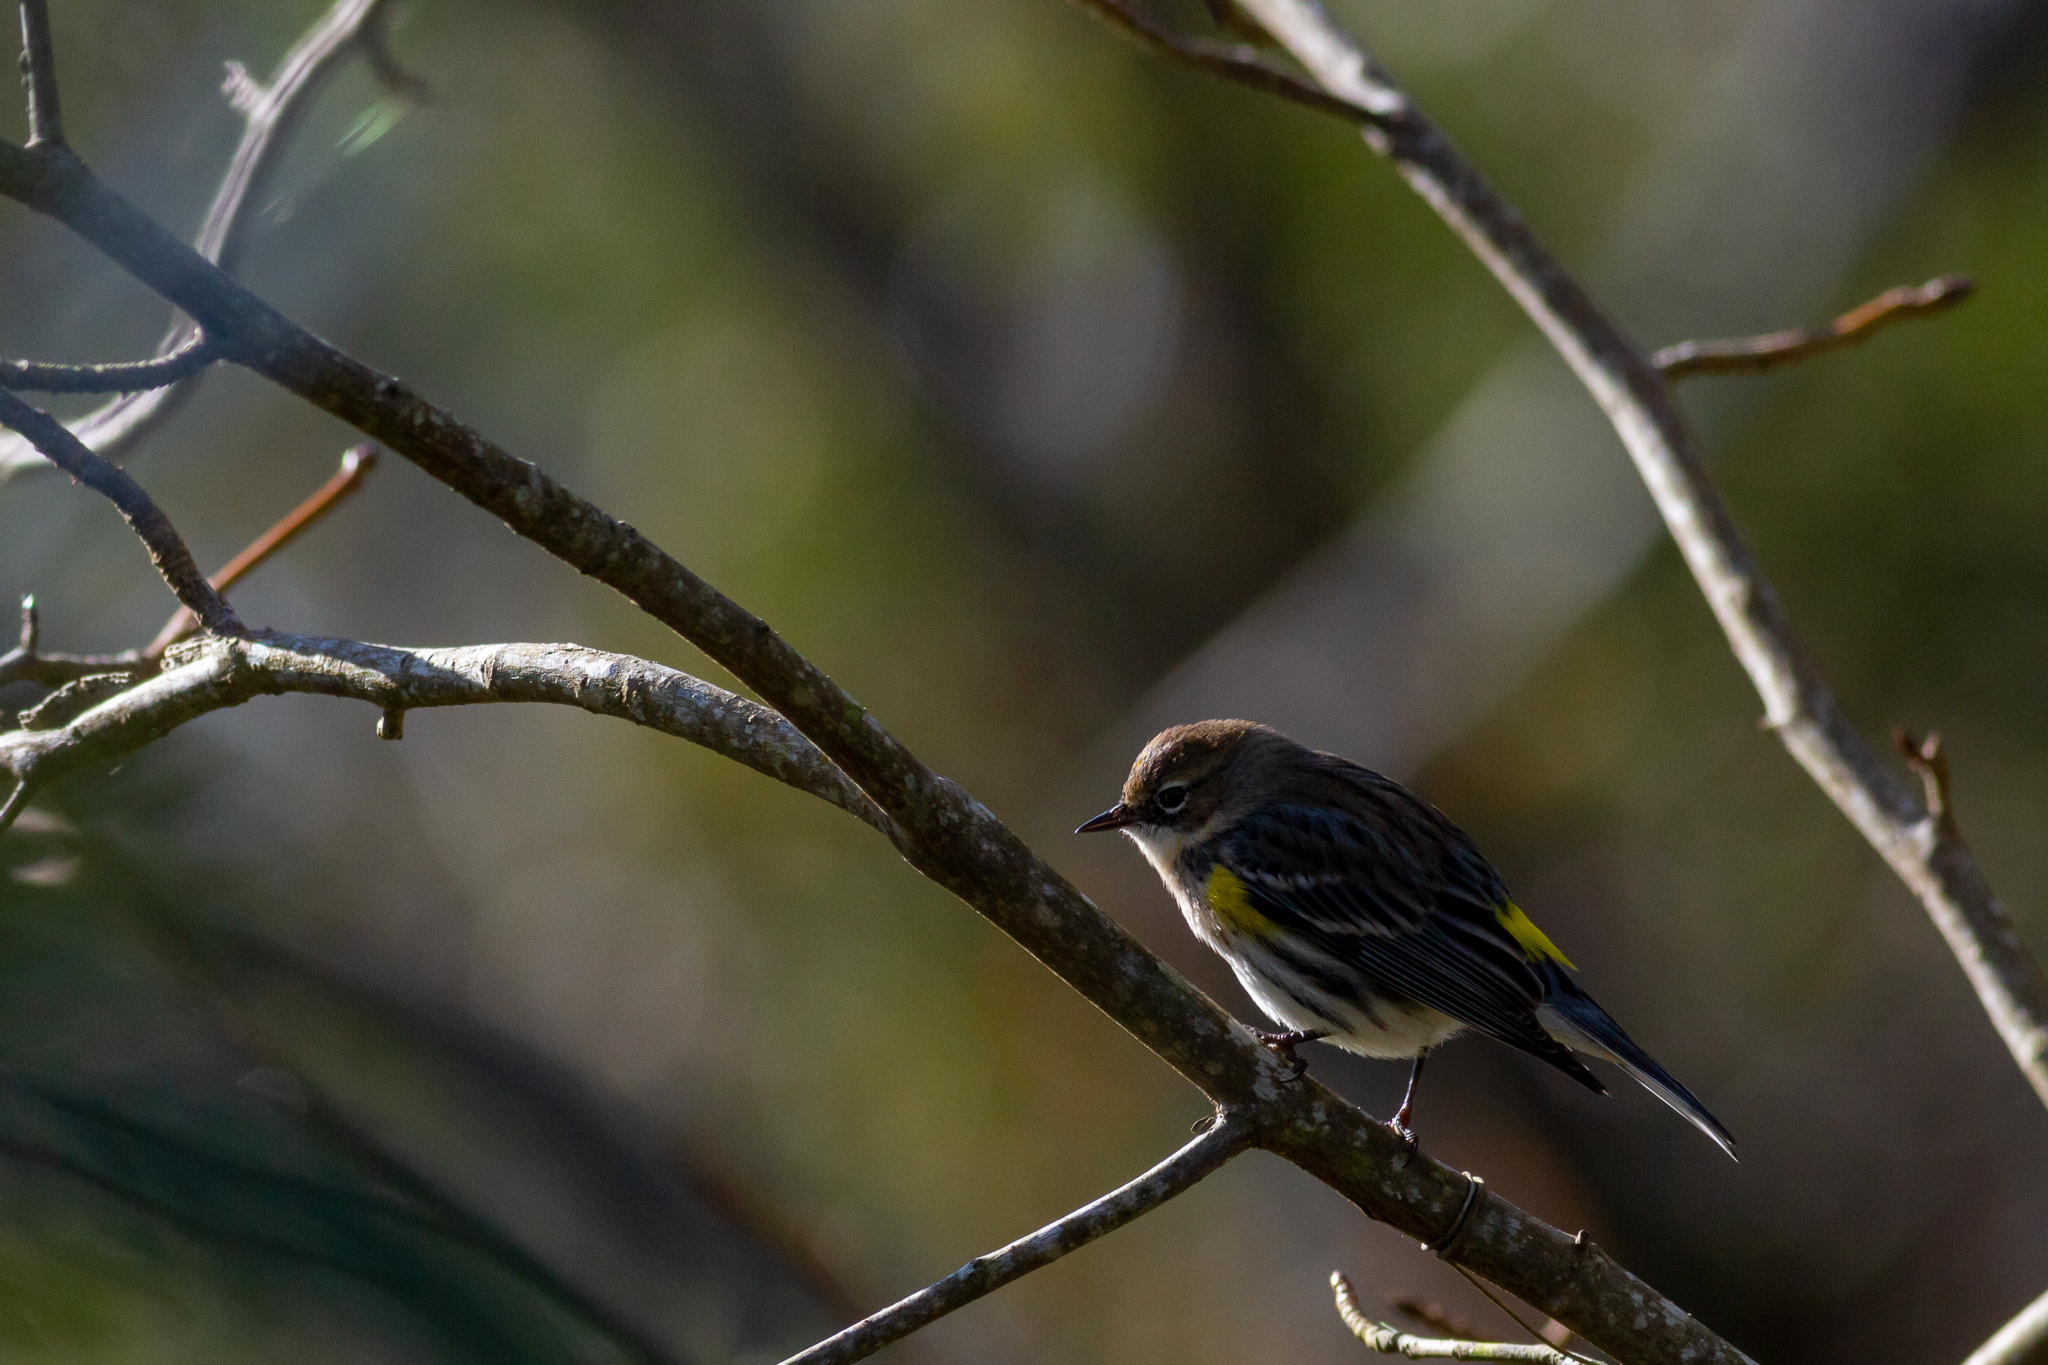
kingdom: Animalia
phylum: Chordata
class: Aves
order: Passeriformes
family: Parulidae
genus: Setophaga
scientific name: Setophaga coronata
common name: Myrtle warbler
